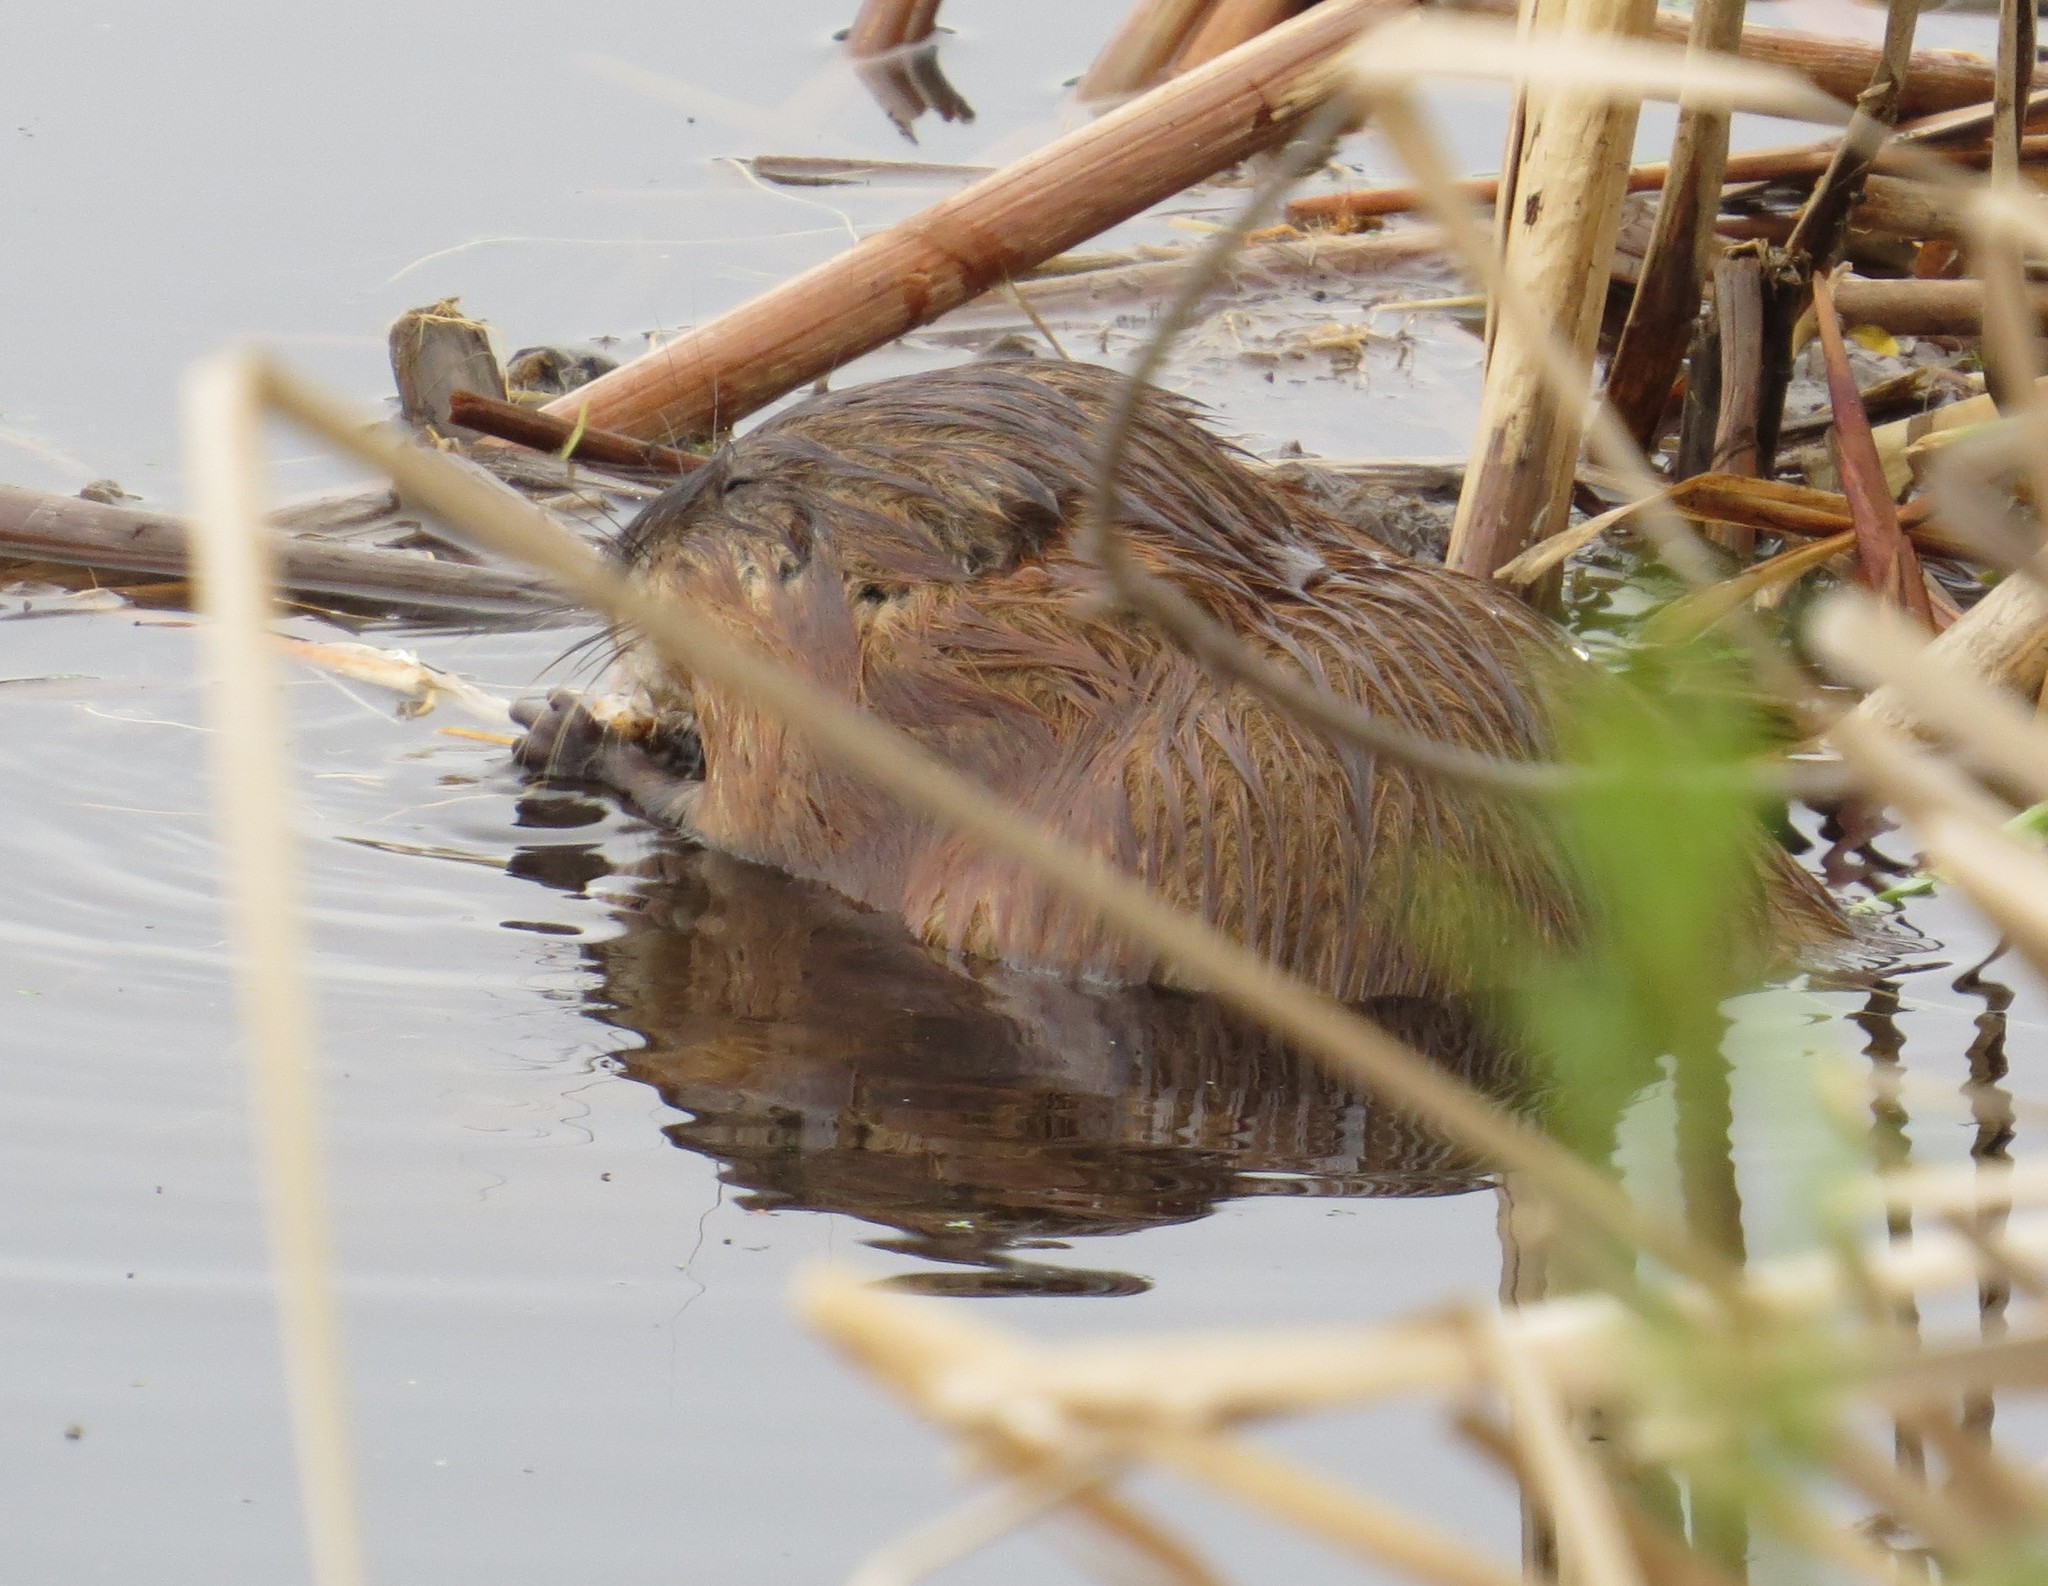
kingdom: Animalia
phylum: Chordata
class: Mammalia
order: Rodentia
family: Cricetidae
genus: Ondatra
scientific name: Ondatra zibethicus
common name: Muskrat
